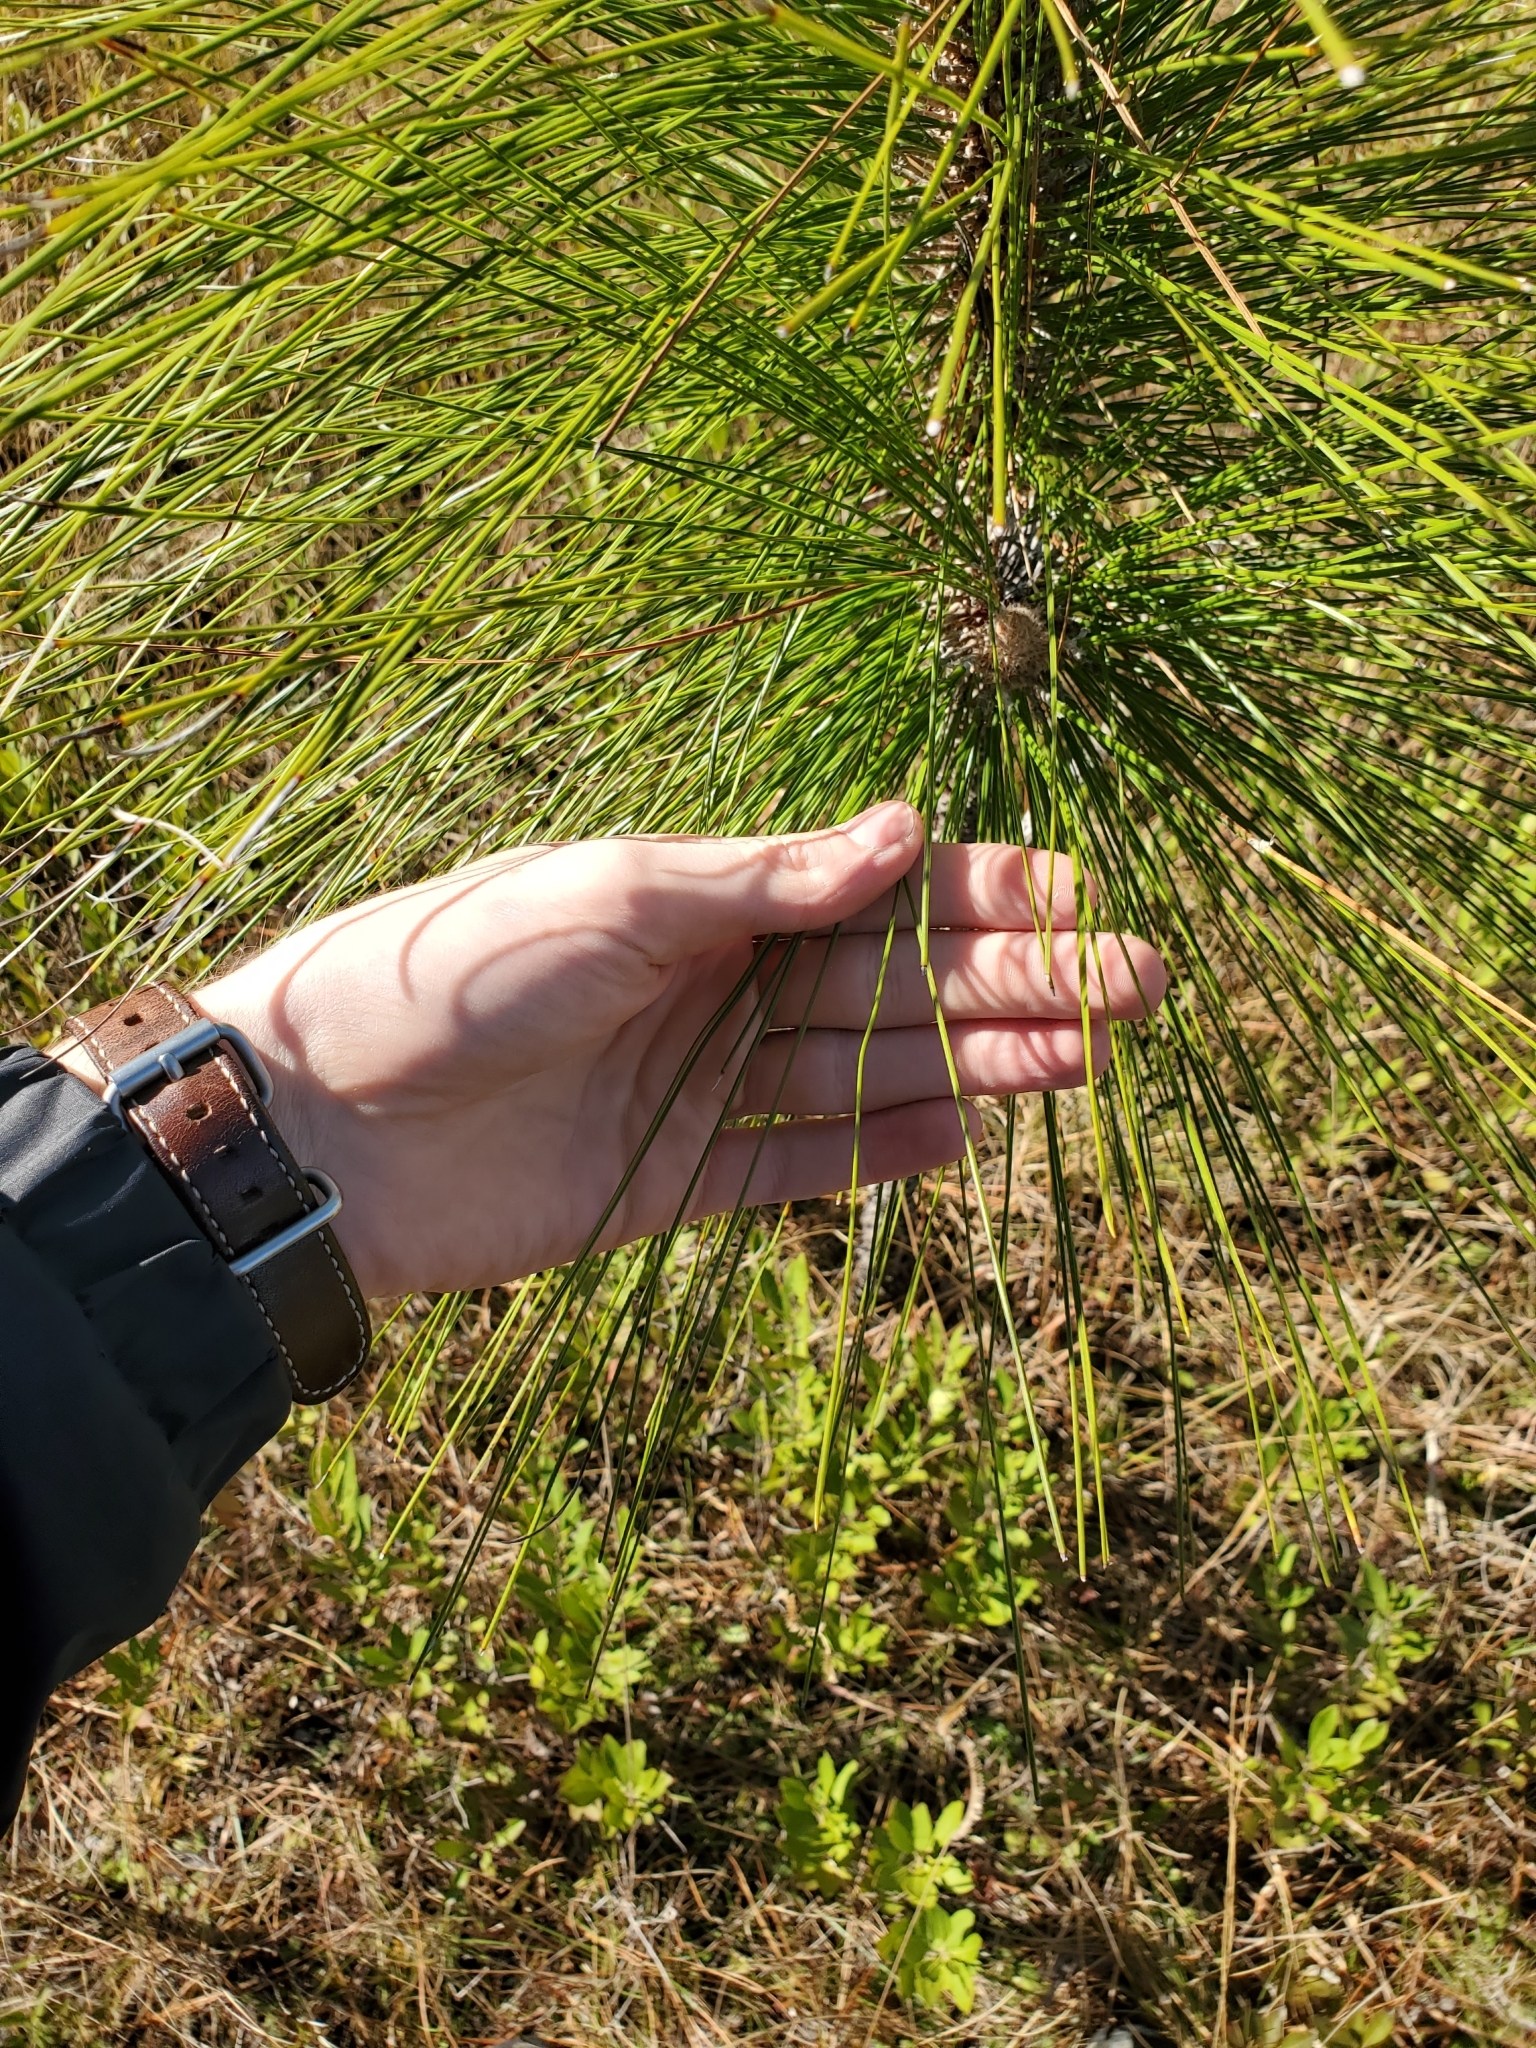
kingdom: Plantae
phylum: Tracheophyta
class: Pinopsida
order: Pinales
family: Pinaceae
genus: Pinus
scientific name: Pinus palustris
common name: Longleaf pine
